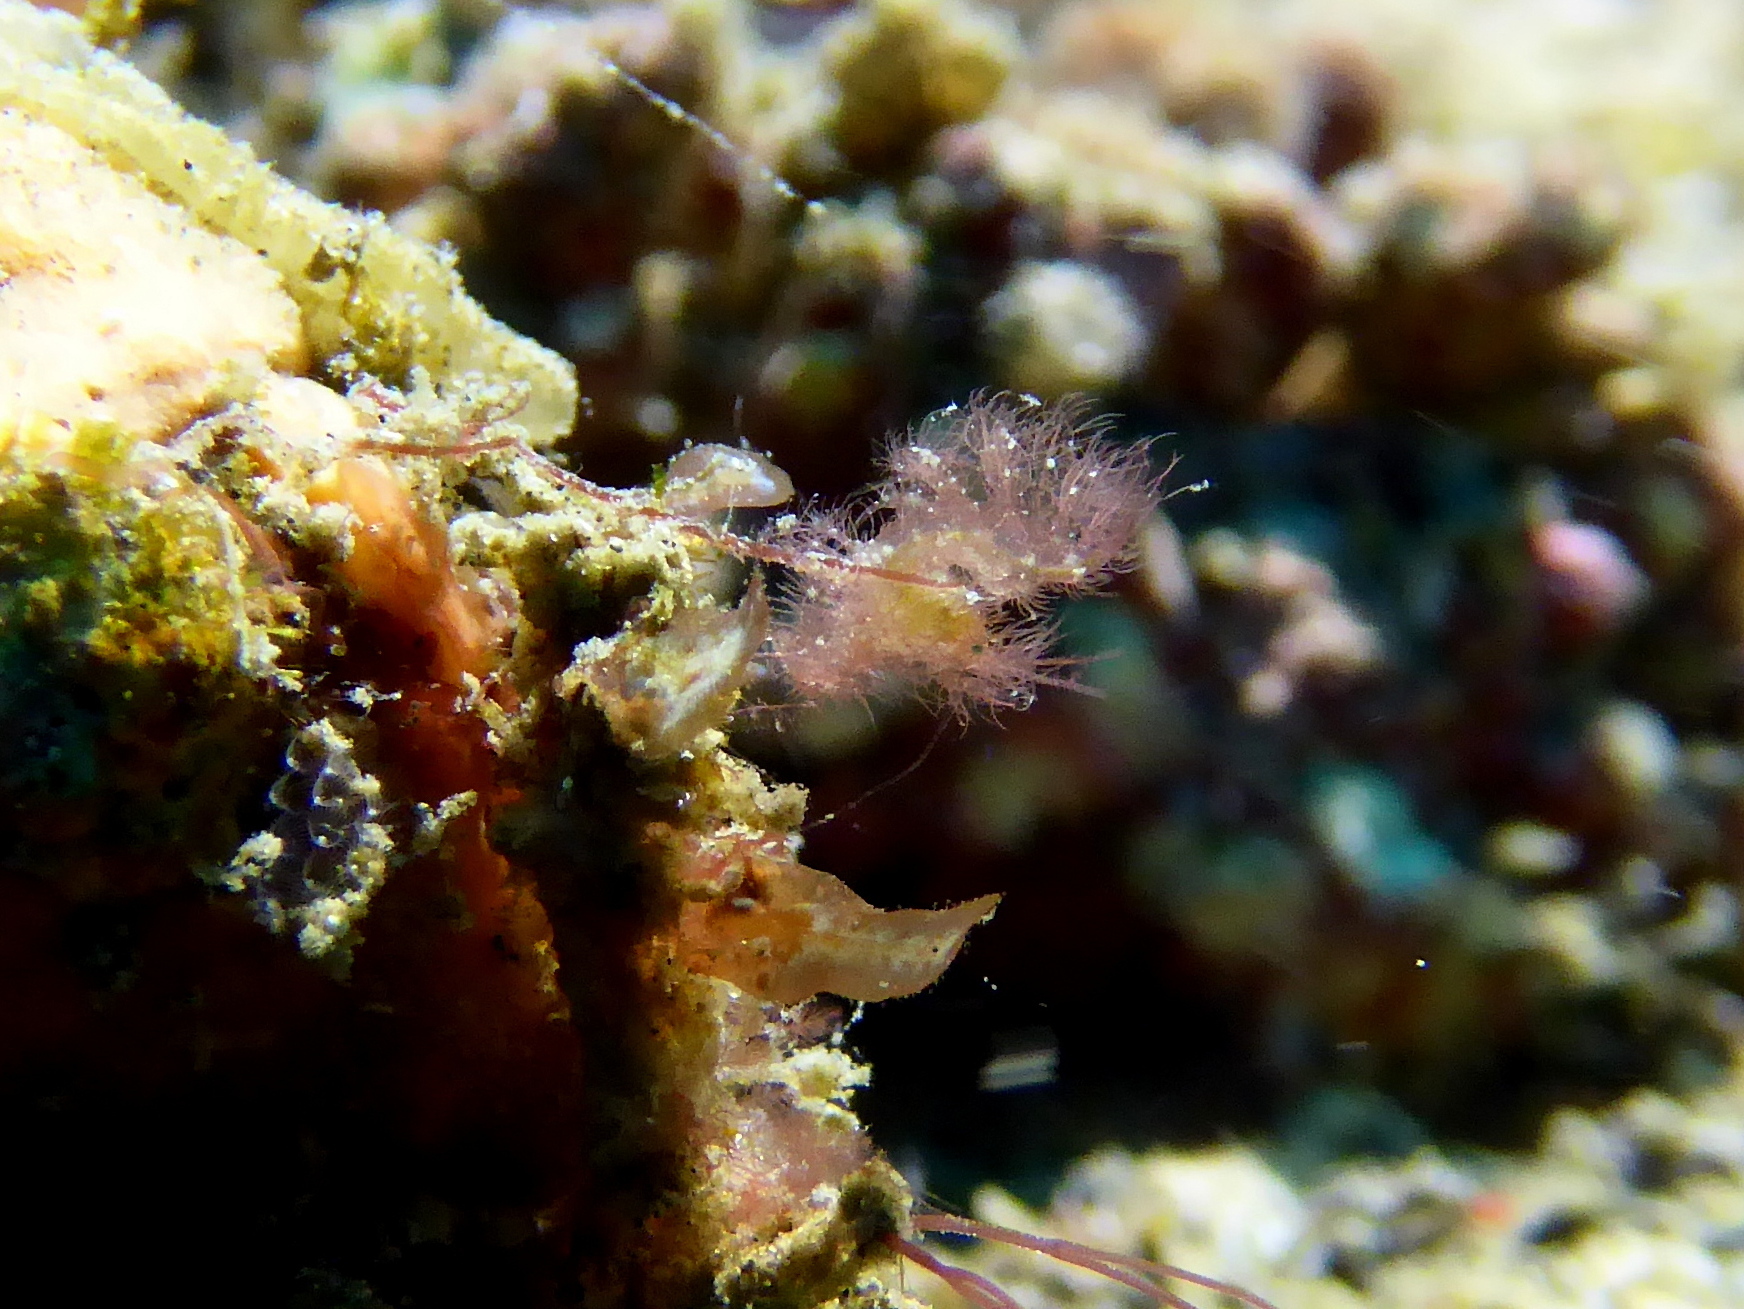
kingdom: Animalia
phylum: Arthropoda
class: Malacostraca
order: Decapoda
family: Hippolytidae
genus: Phycocaris
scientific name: Phycocaris simulans
